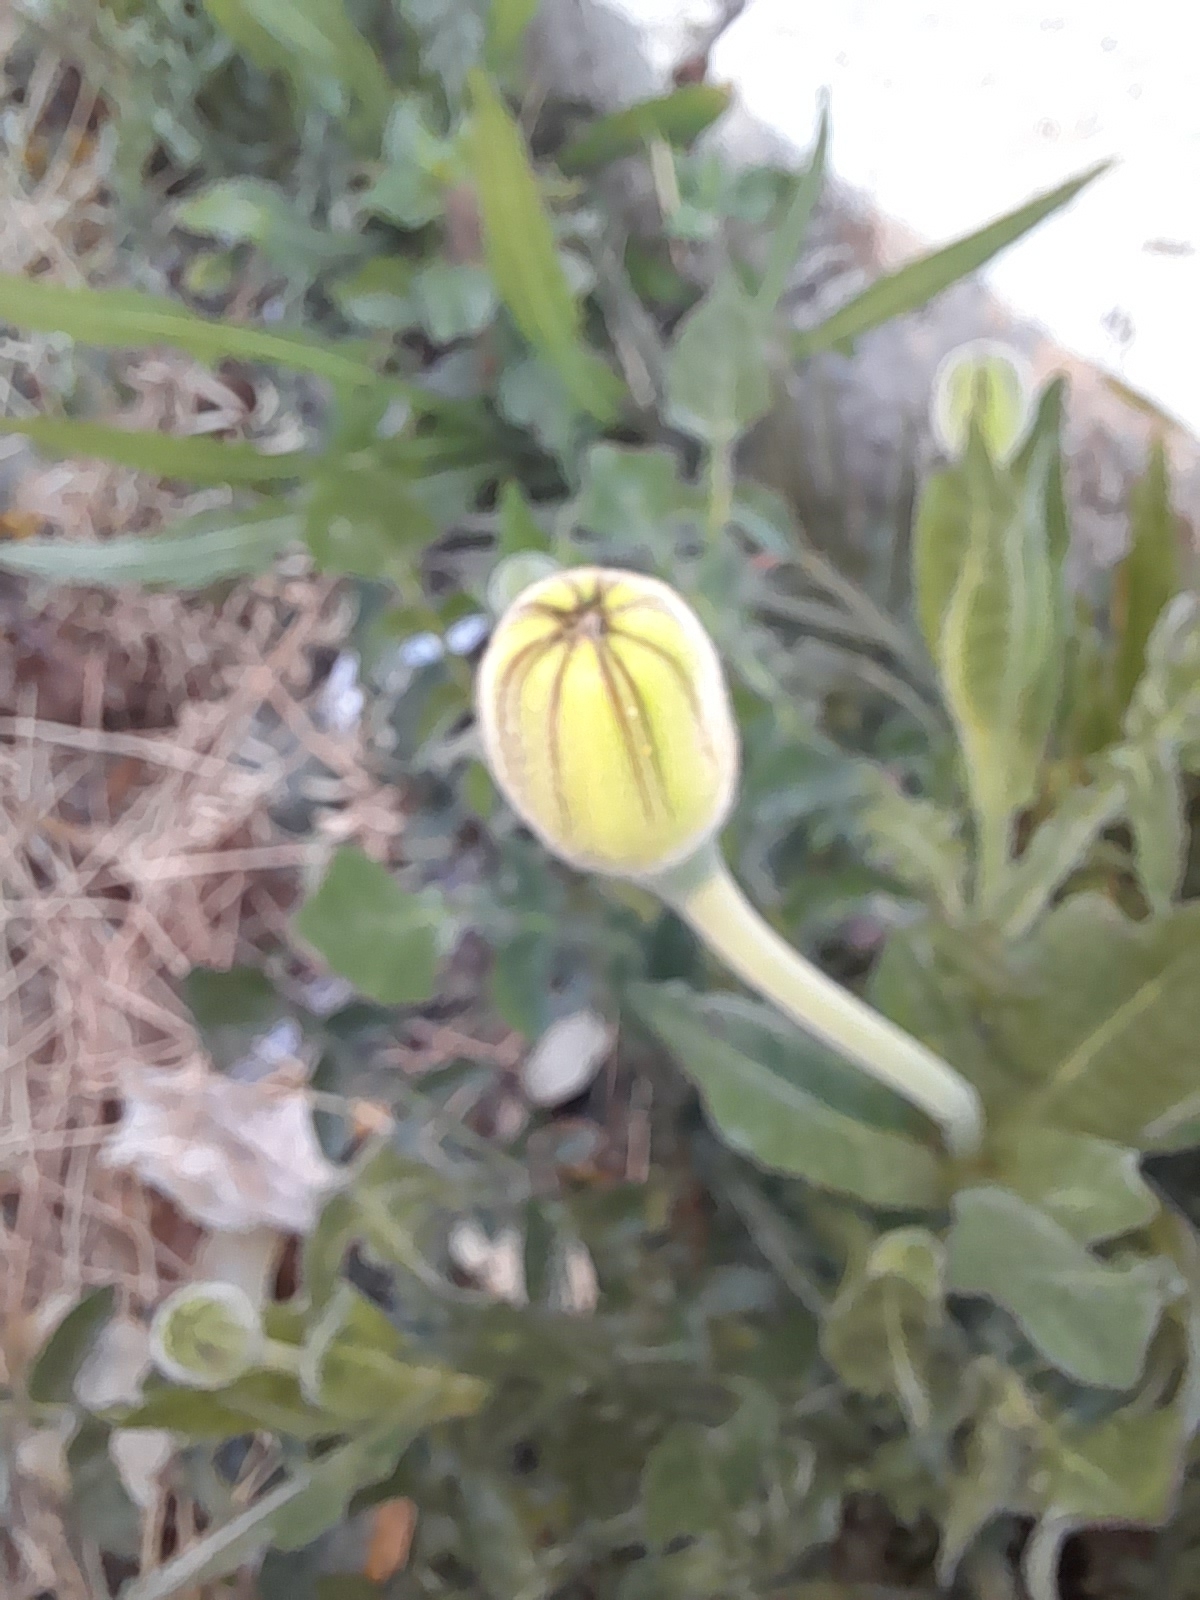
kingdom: Plantae
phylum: Tracheophyta
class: Magnoliopsida
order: Asterales
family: Asteraceae
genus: Urospermum
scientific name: Urospermum dalechampii
